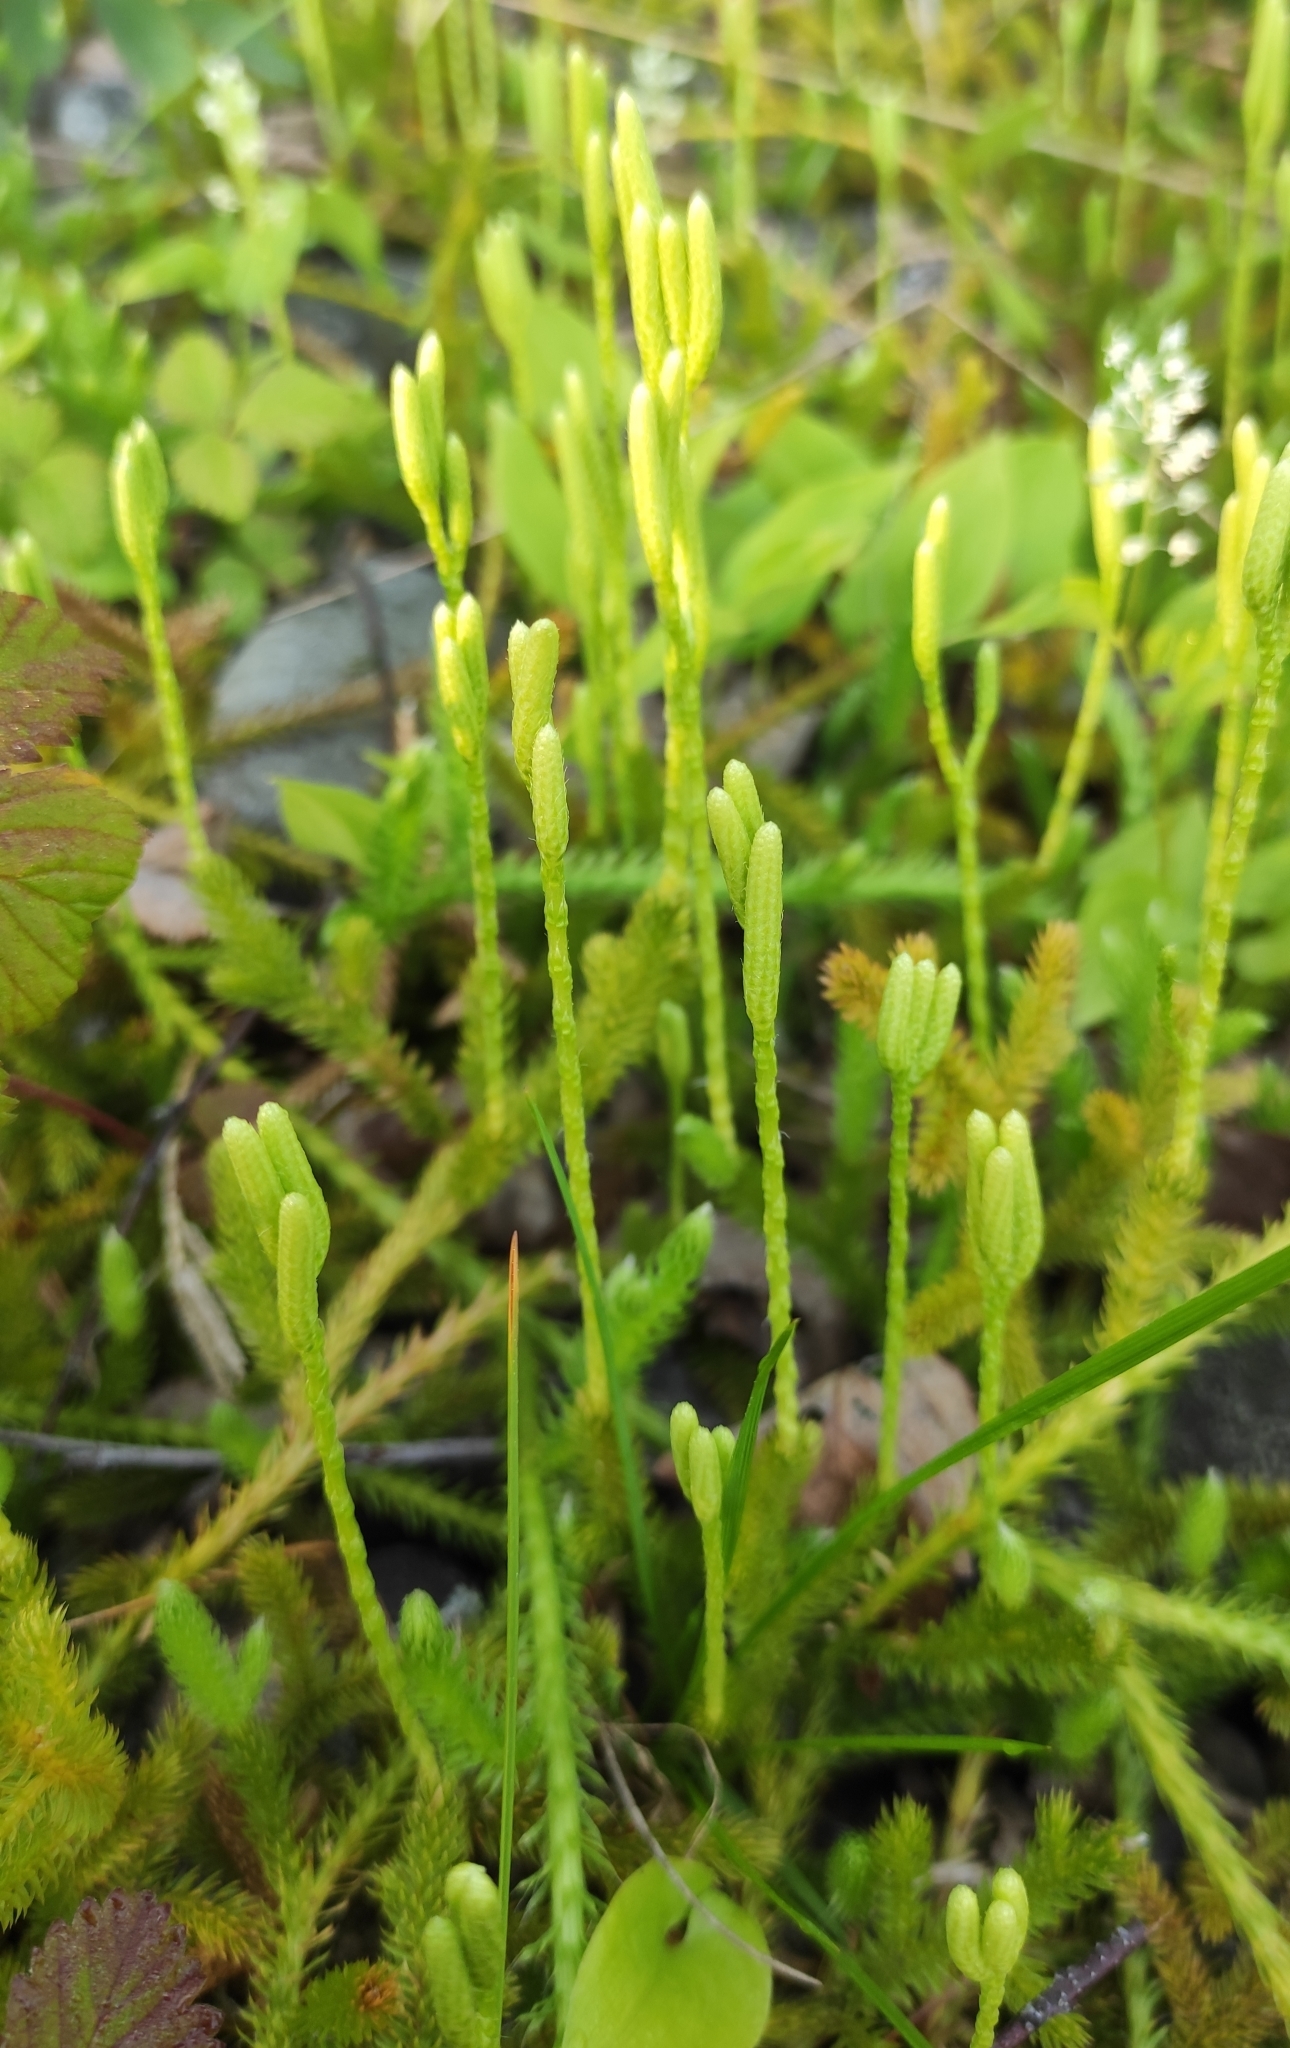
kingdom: Plantae
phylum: Tracheophyta
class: Lycopodiopsida
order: Lycopodiales
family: Lycopodiaceae
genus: Lycopodium
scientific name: Lycopodium clavatum
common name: Stag's-horn clubmoss
